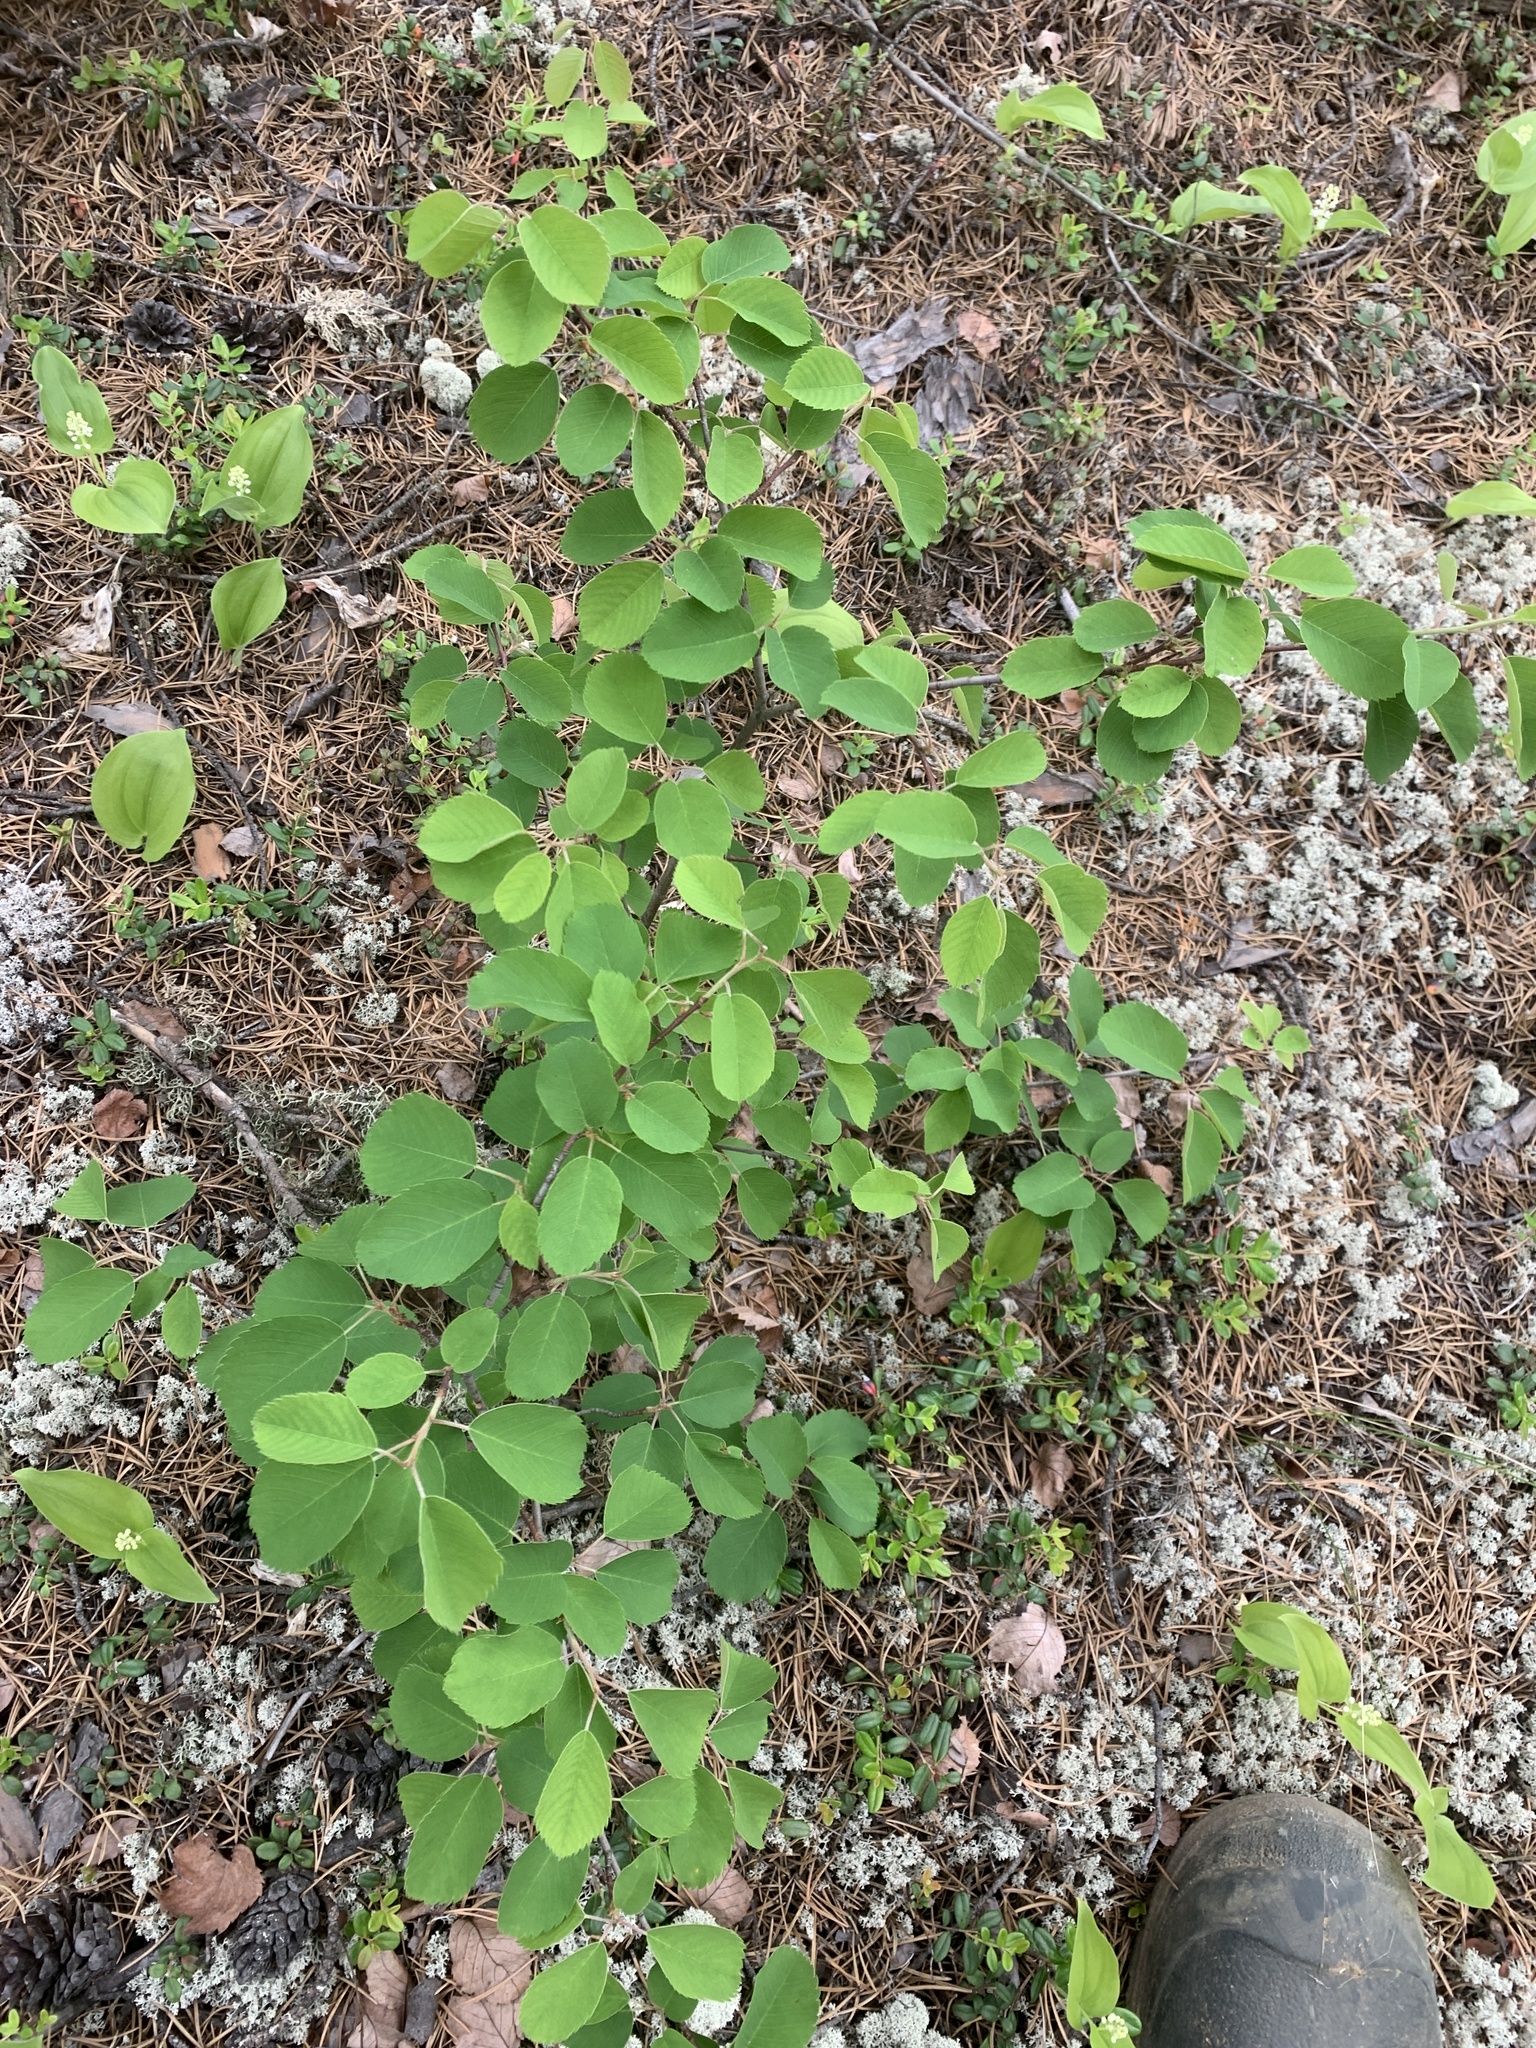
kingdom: Plantae
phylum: Tracheophyta
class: Magnoliopsida
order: Rosales
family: Rosaceae
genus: Amelanchier
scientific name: Amelanchier alnifolia
